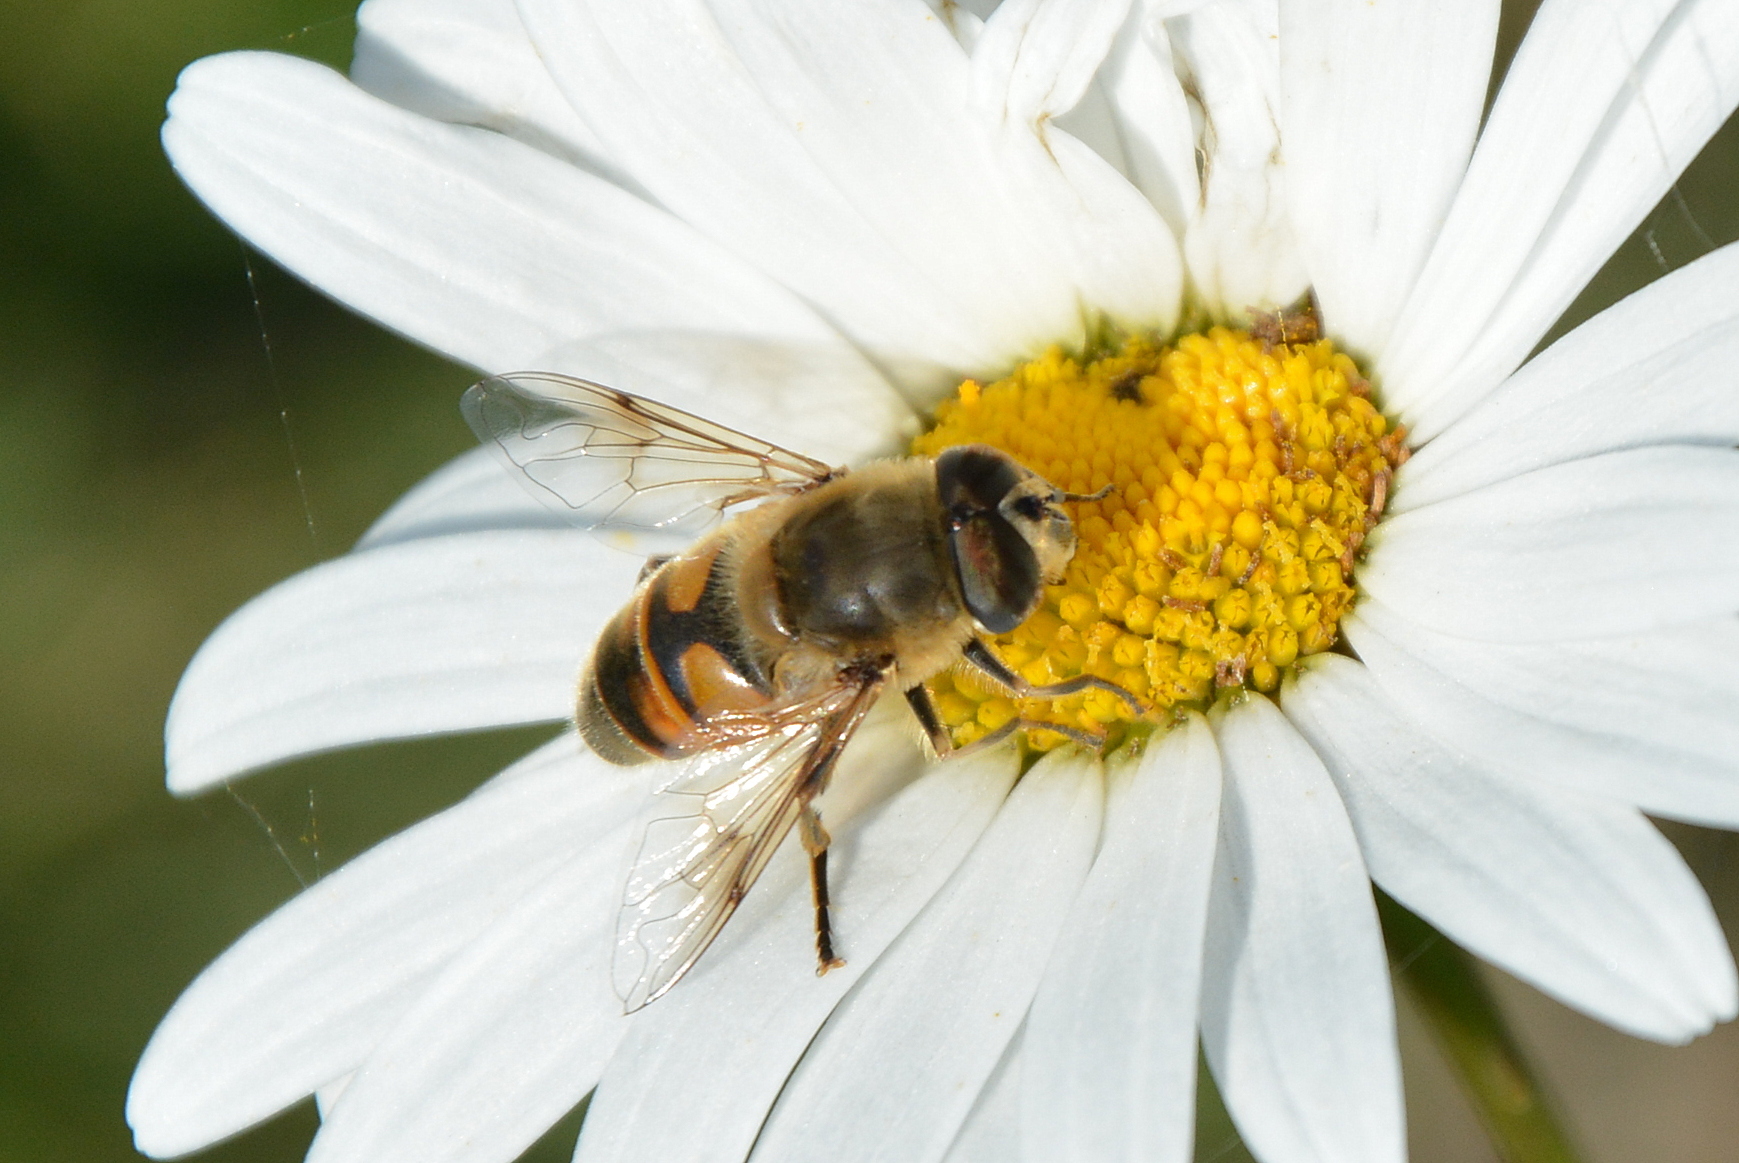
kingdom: Animalia
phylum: Arthropoda
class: Insecta
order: Diptera
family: Syrphidae
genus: Eristalis
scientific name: Eristalis tenax
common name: Drone fly
